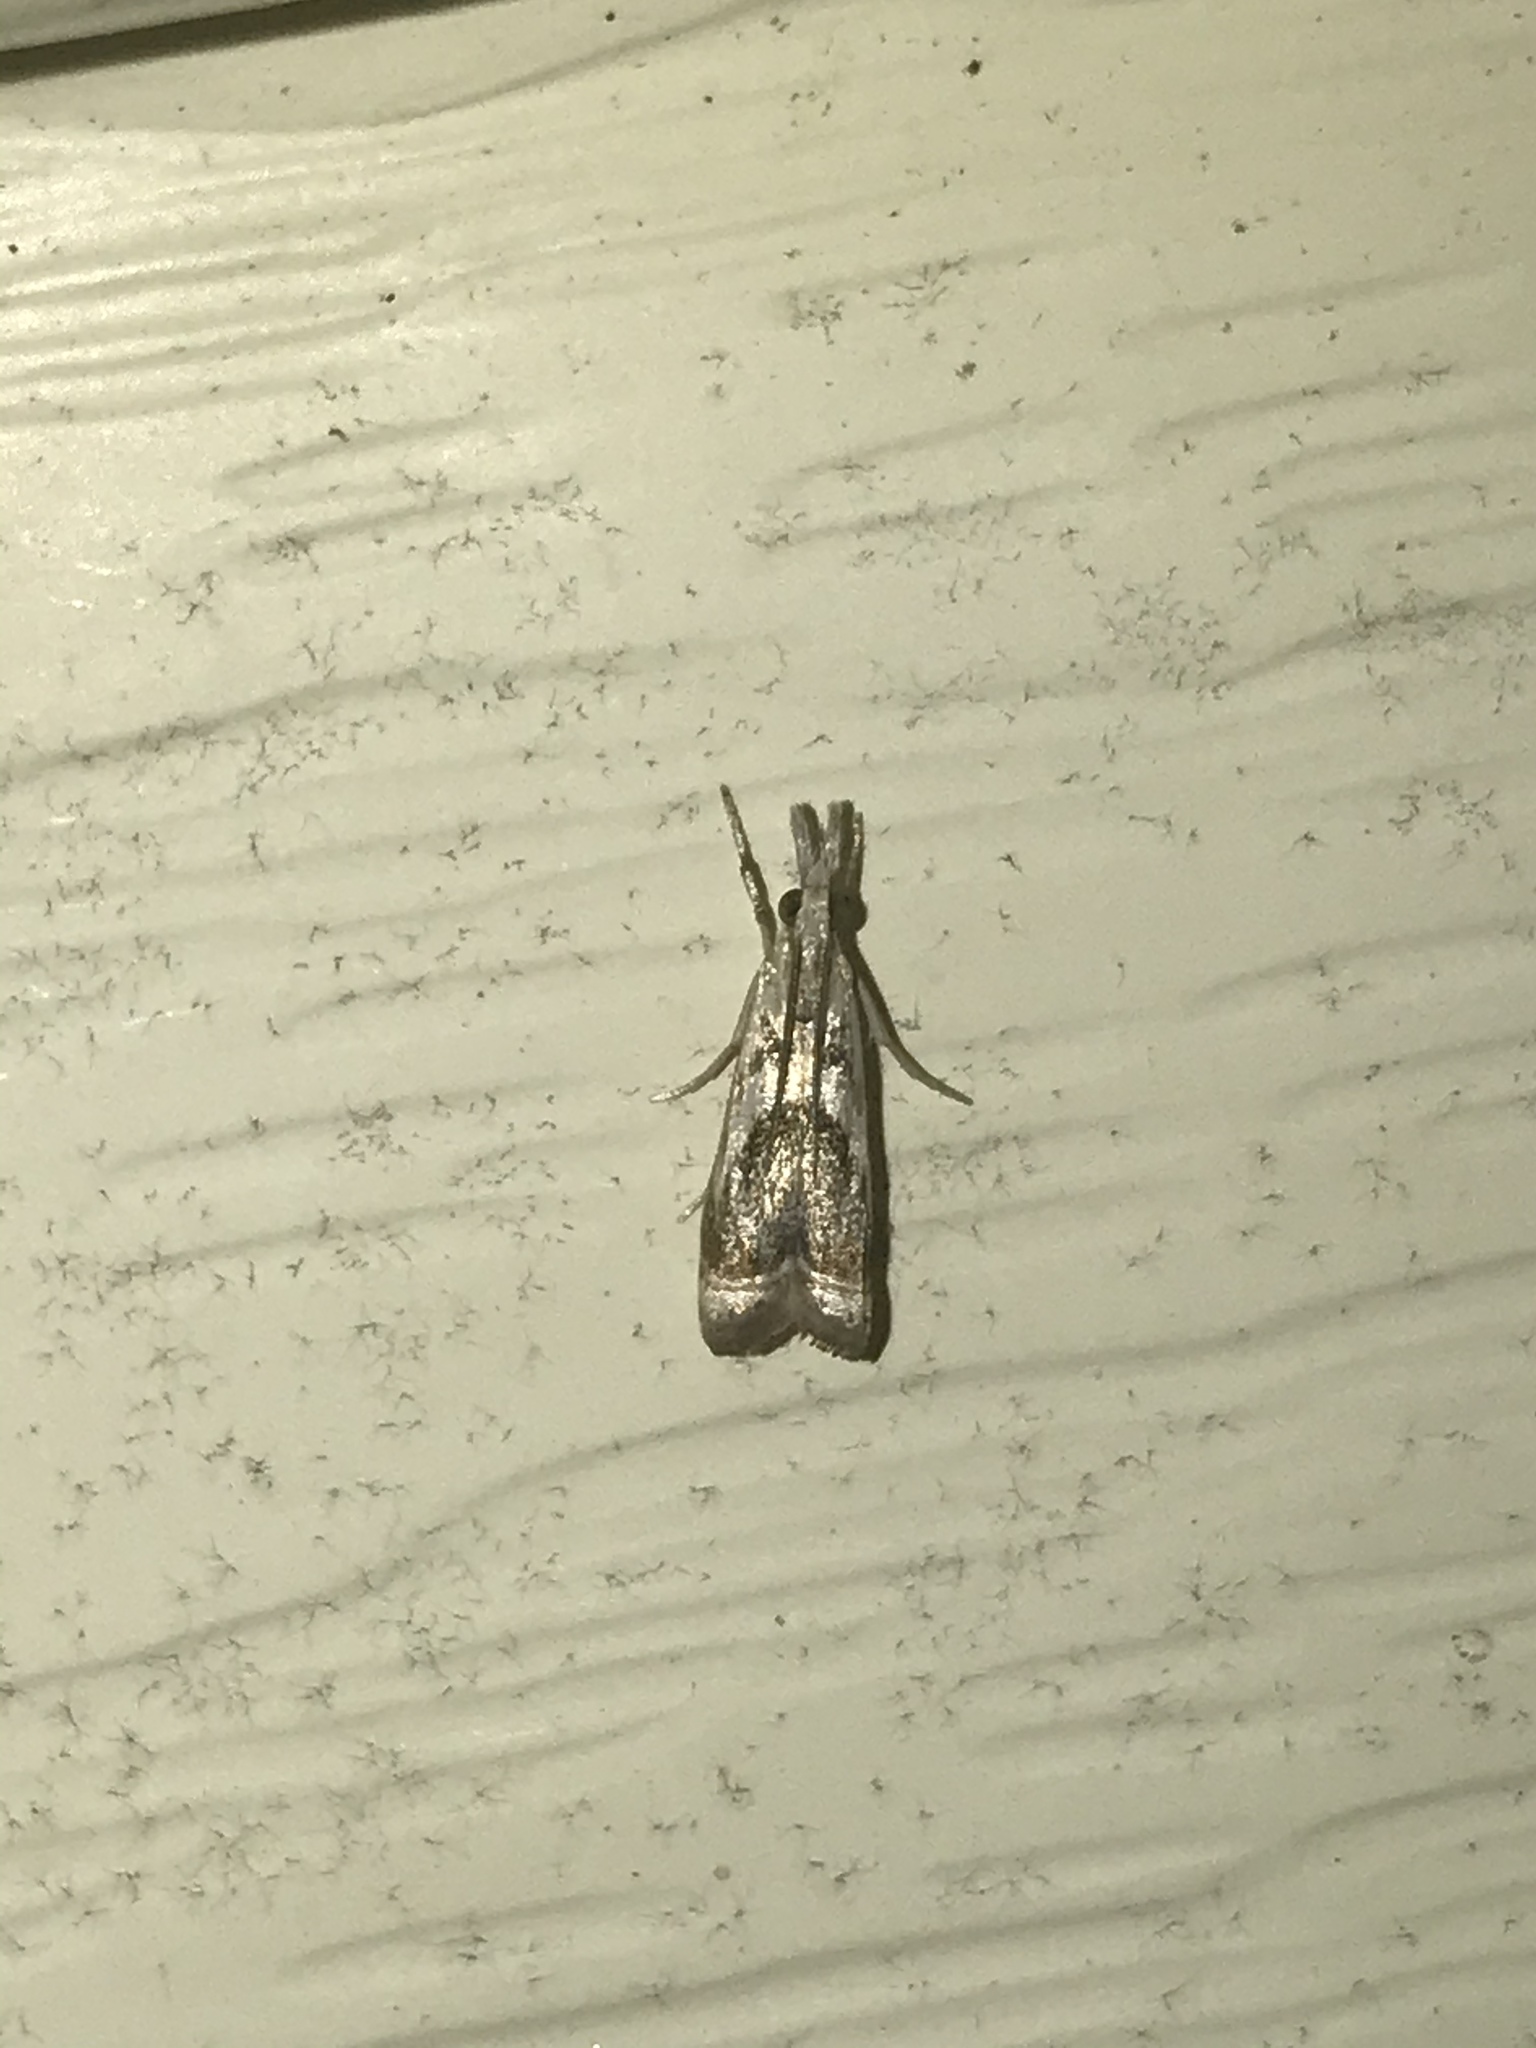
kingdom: Animalia
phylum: Arthropoda
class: Insecta
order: Lepidoptera
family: Crambidae
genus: Microcrambus
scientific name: Microcrambus elegans
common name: Elegant grass-veneer
